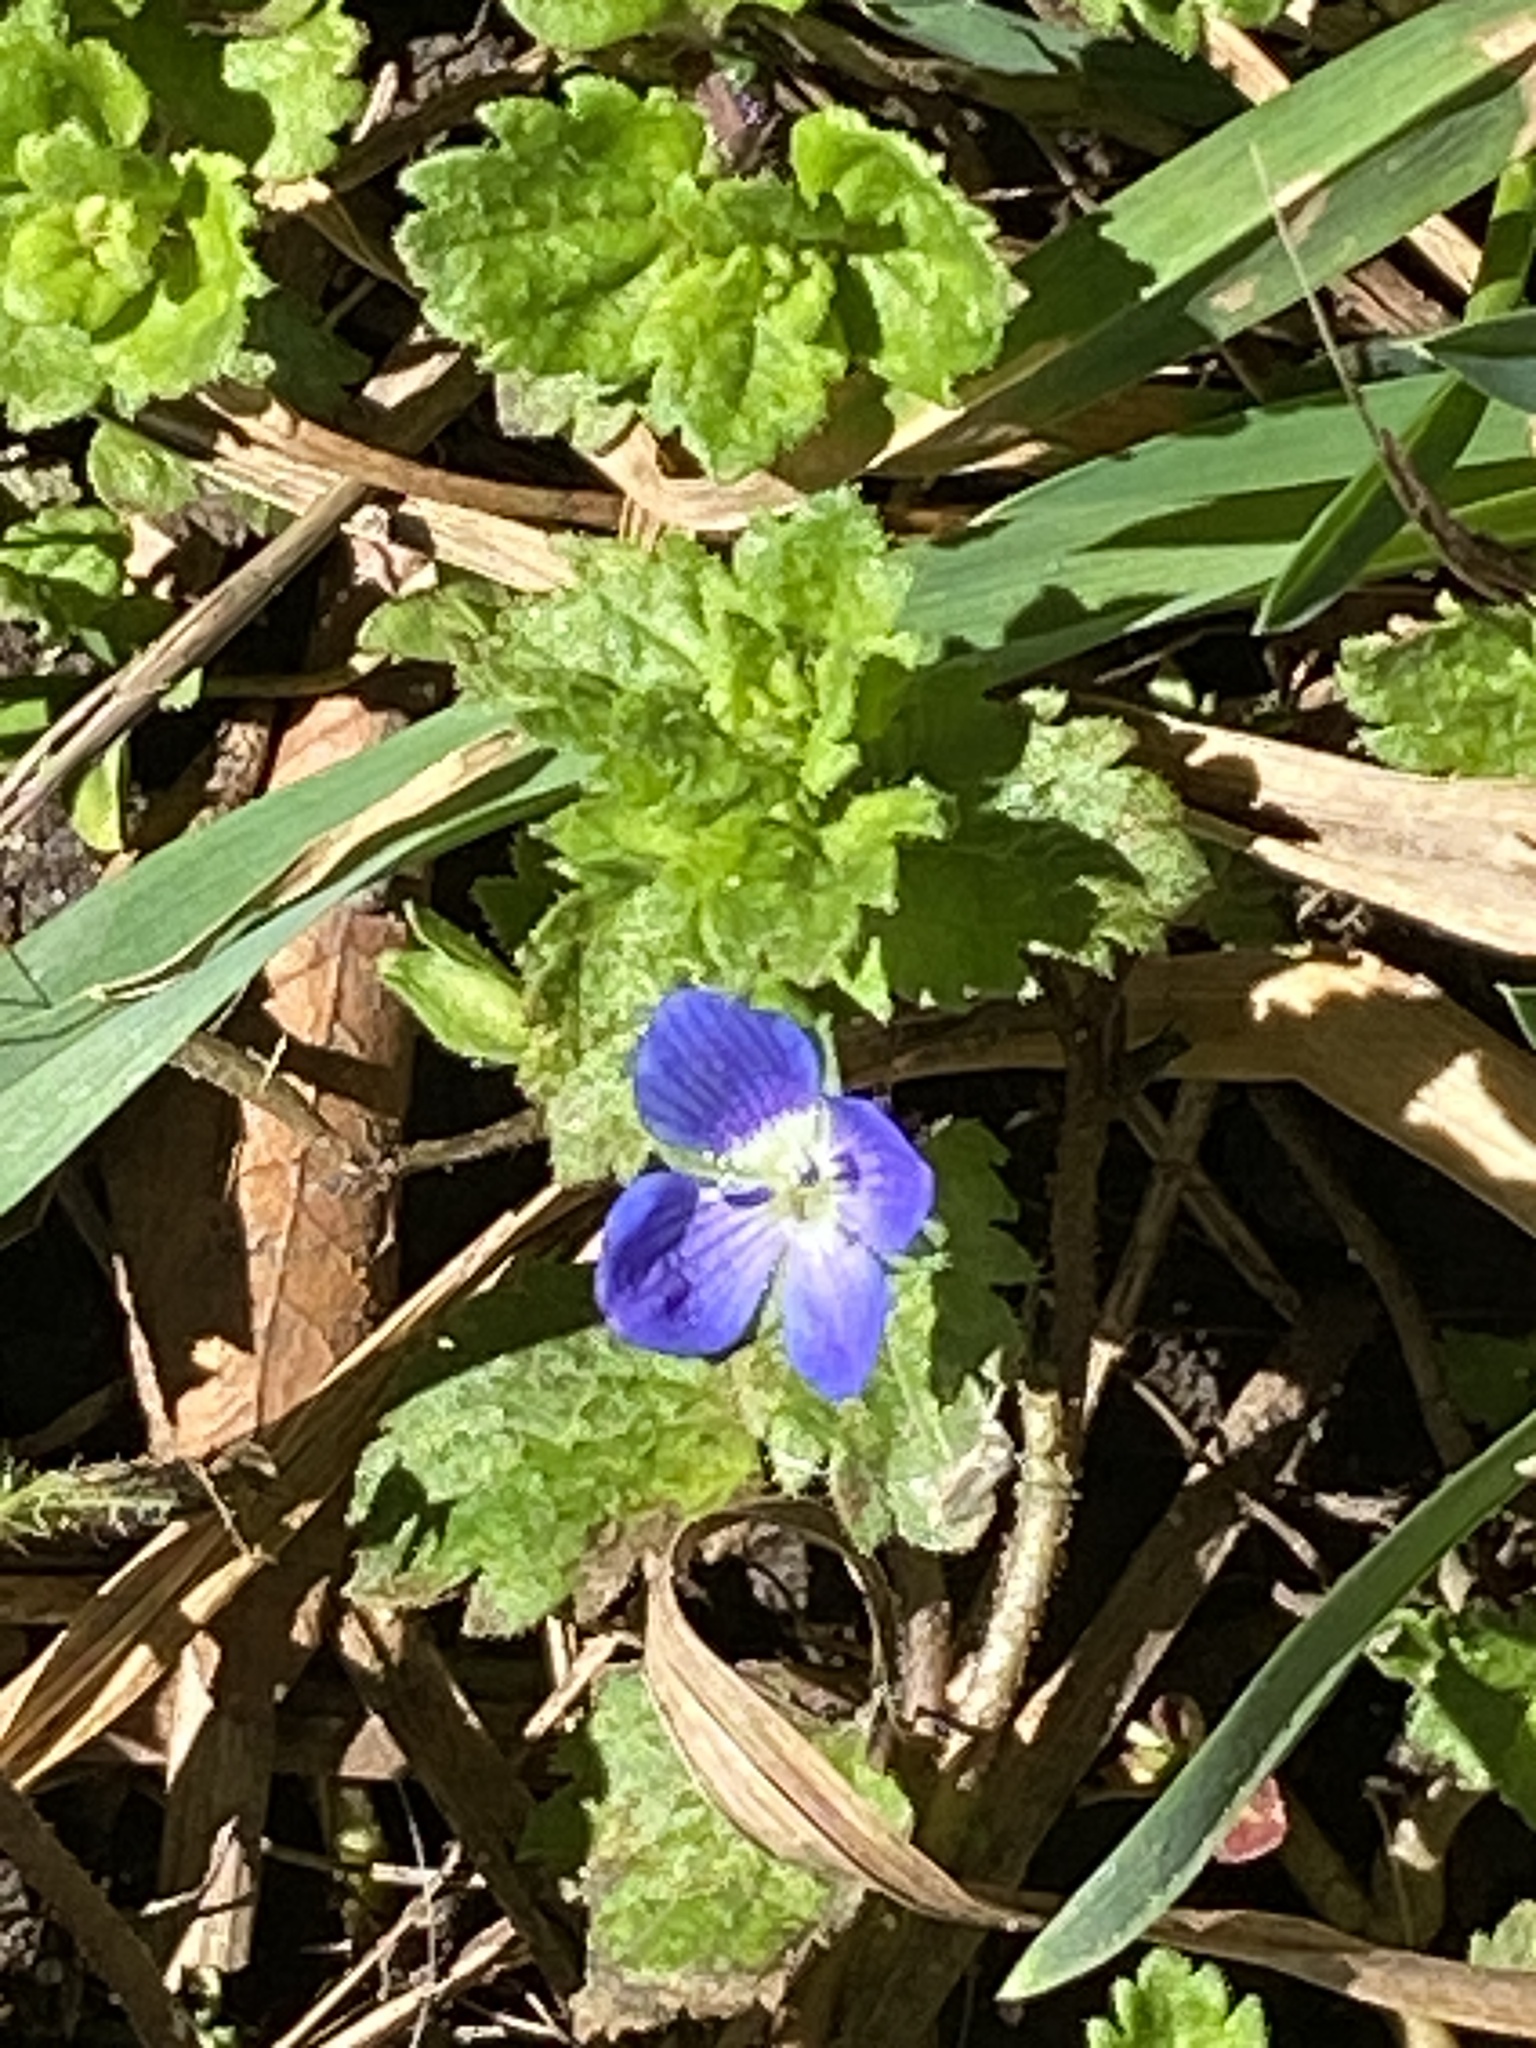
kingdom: Plantae
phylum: Tracheophyta
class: Magnoliopsida
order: Lamiales
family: Plantaginaceae
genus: Veronica
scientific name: Veronica persica
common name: Common field-speedwell
